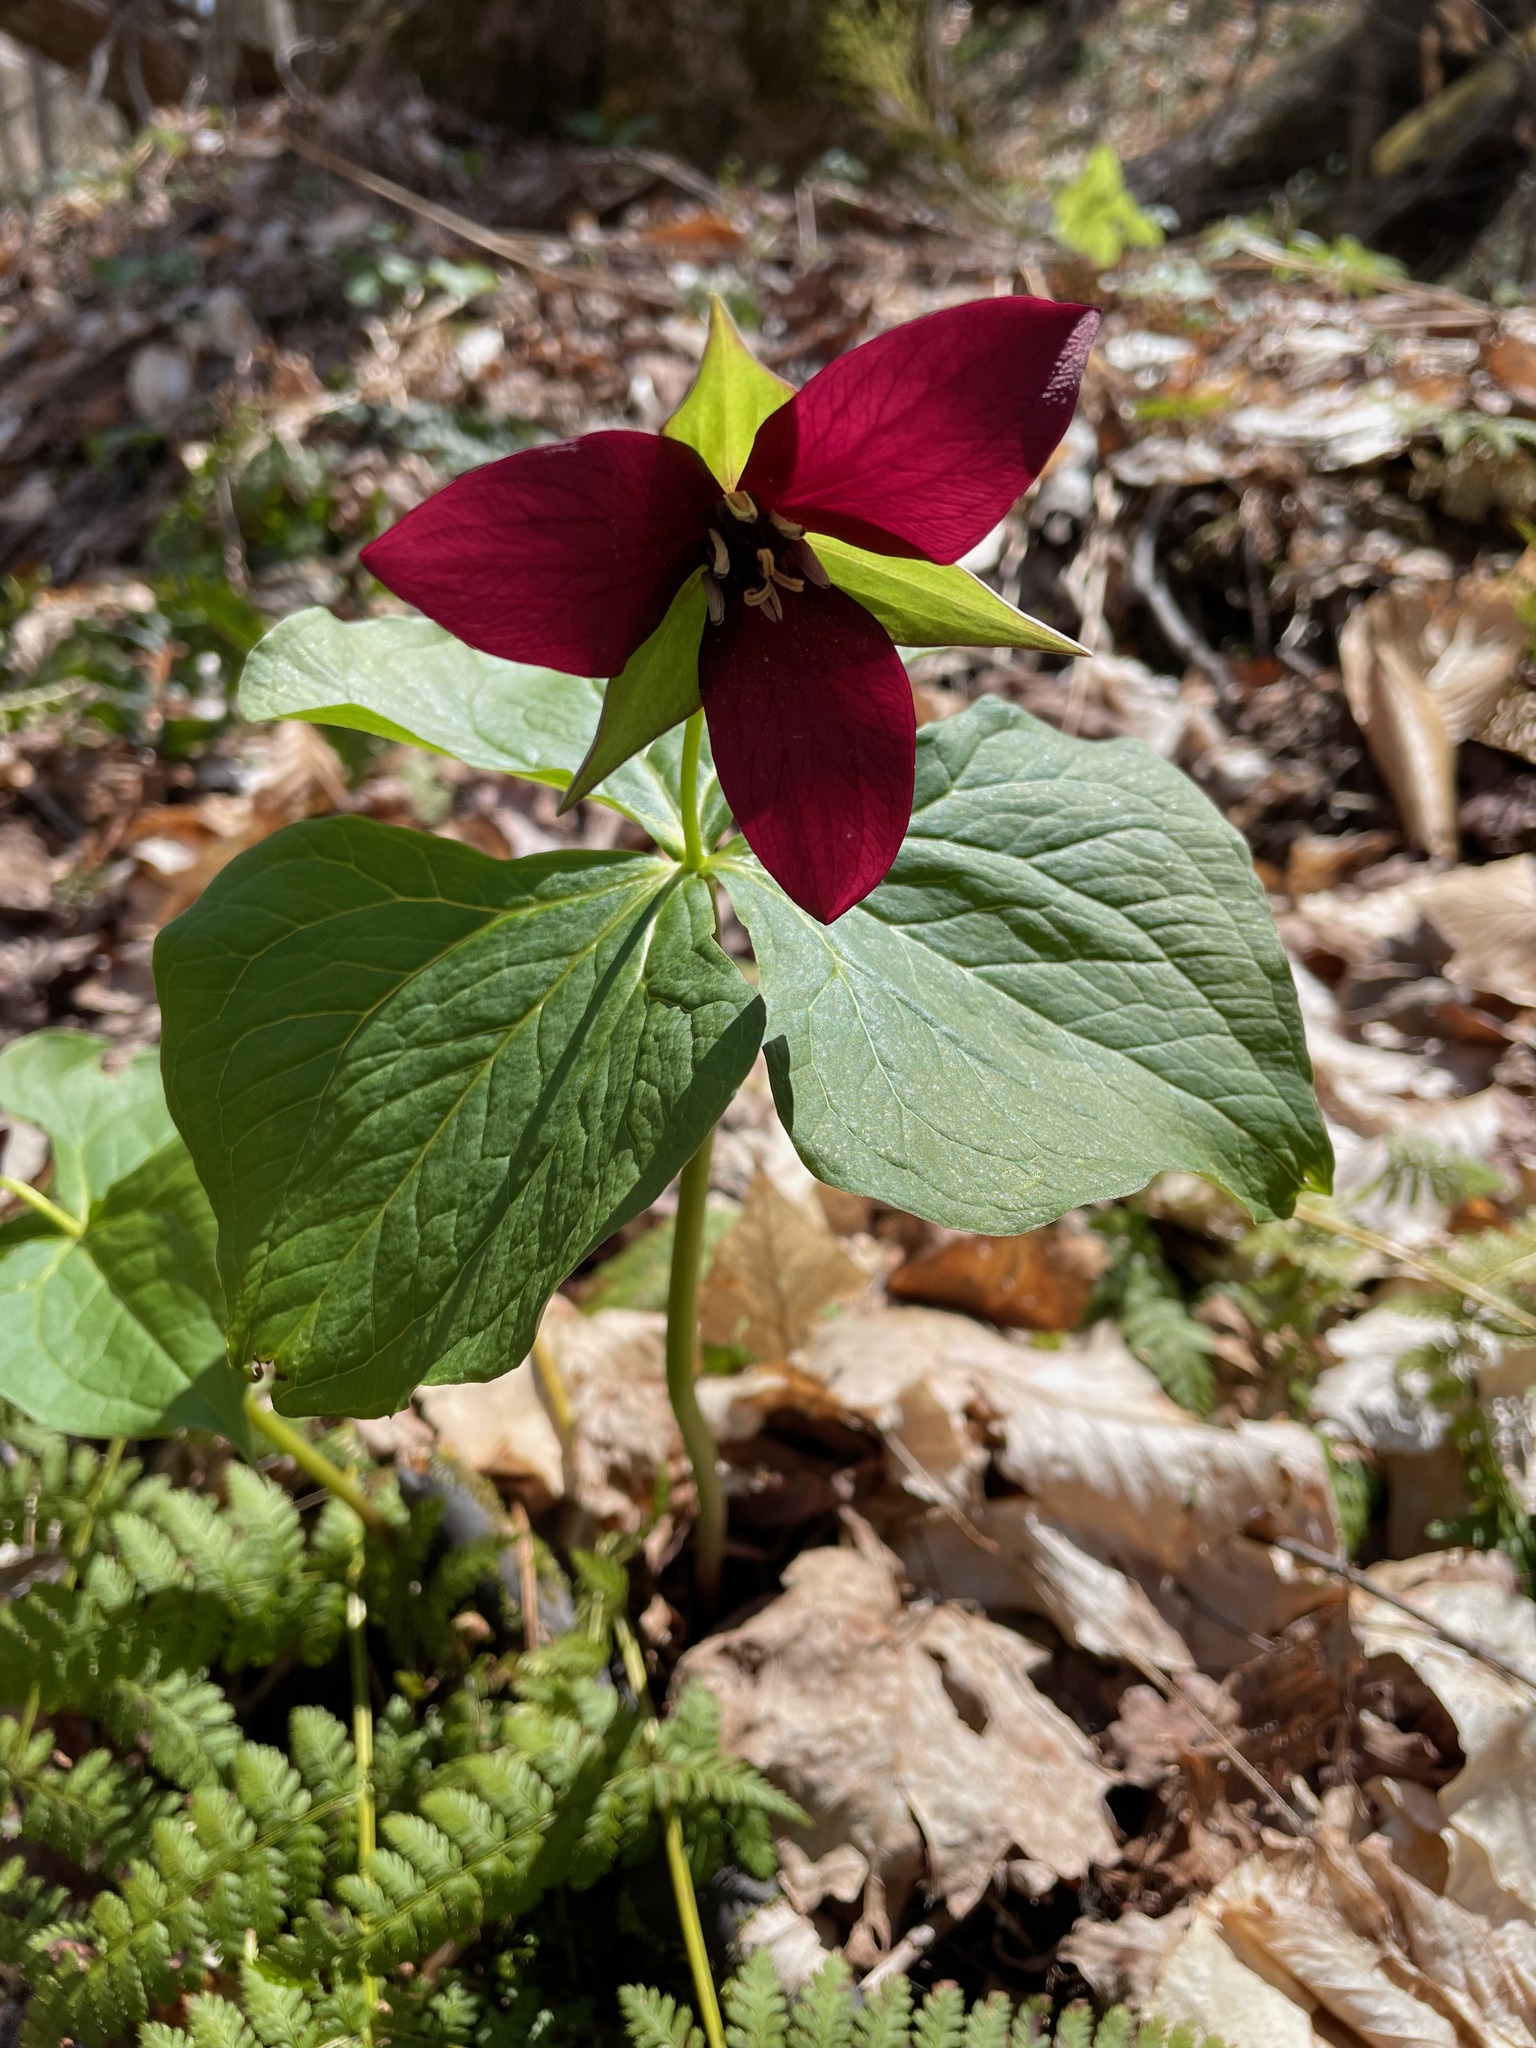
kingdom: Plantae
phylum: Tracheophyta
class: Liliopsida
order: Liliales
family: Melanthiaceae
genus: Trillium
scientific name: Trillium erectum
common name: Purple trillium
